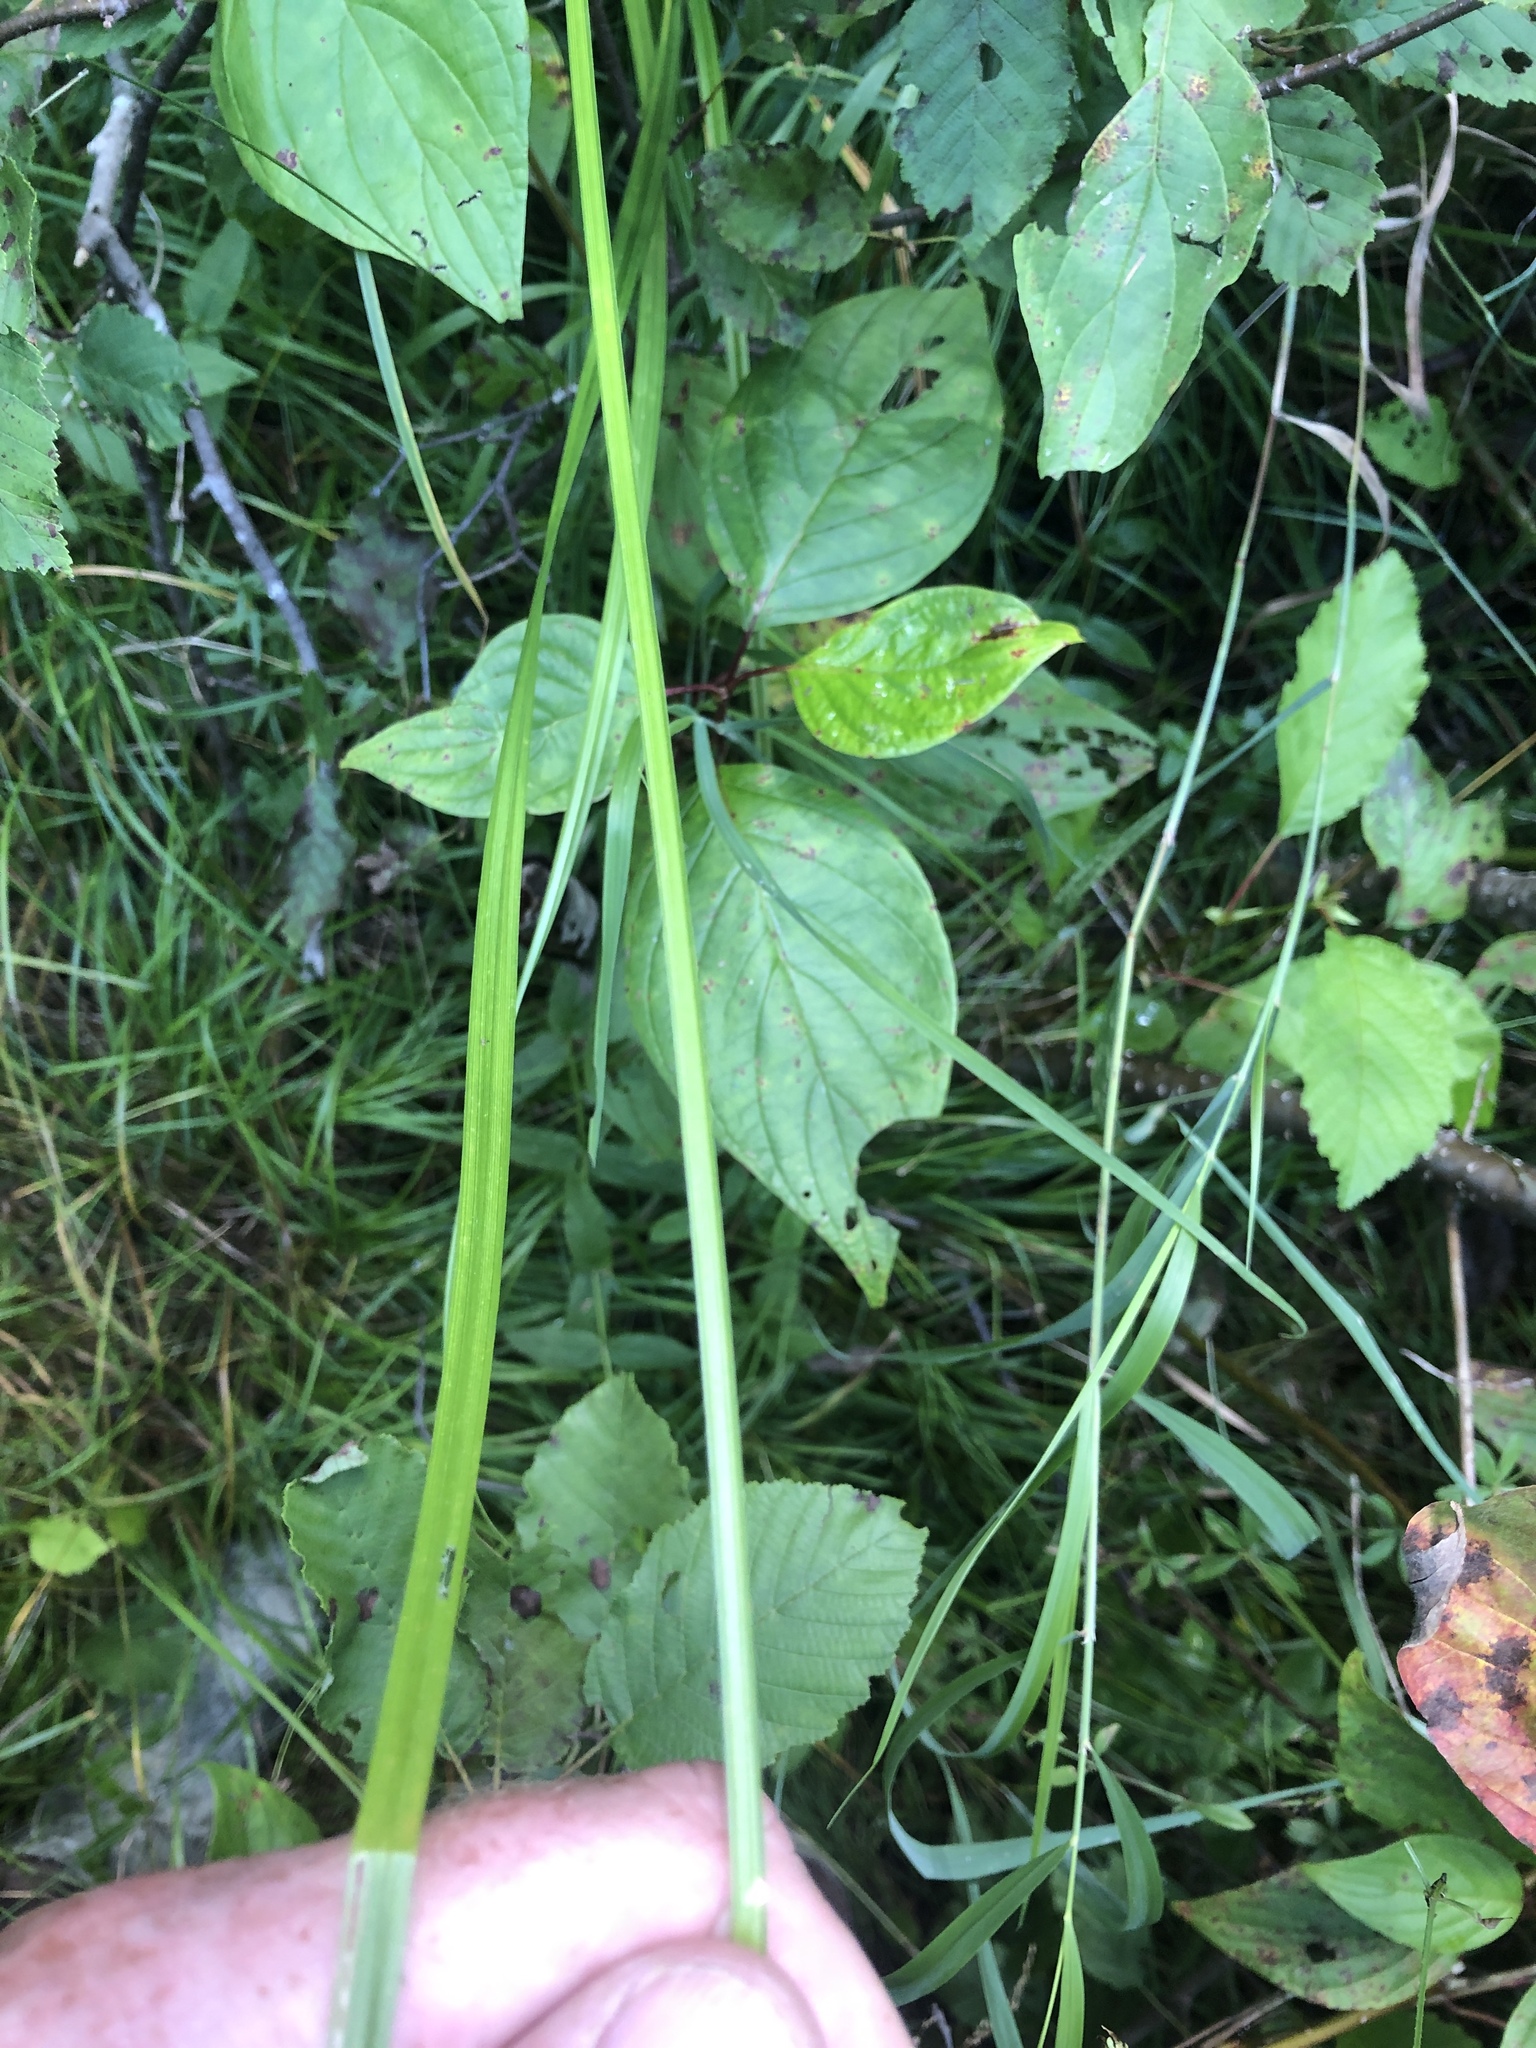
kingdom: Plantae
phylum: Tracheophyta
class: Liliopsida
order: Poales
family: Cyperaceae
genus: Carex
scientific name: Carex stipata
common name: Awl-fruited sedge
